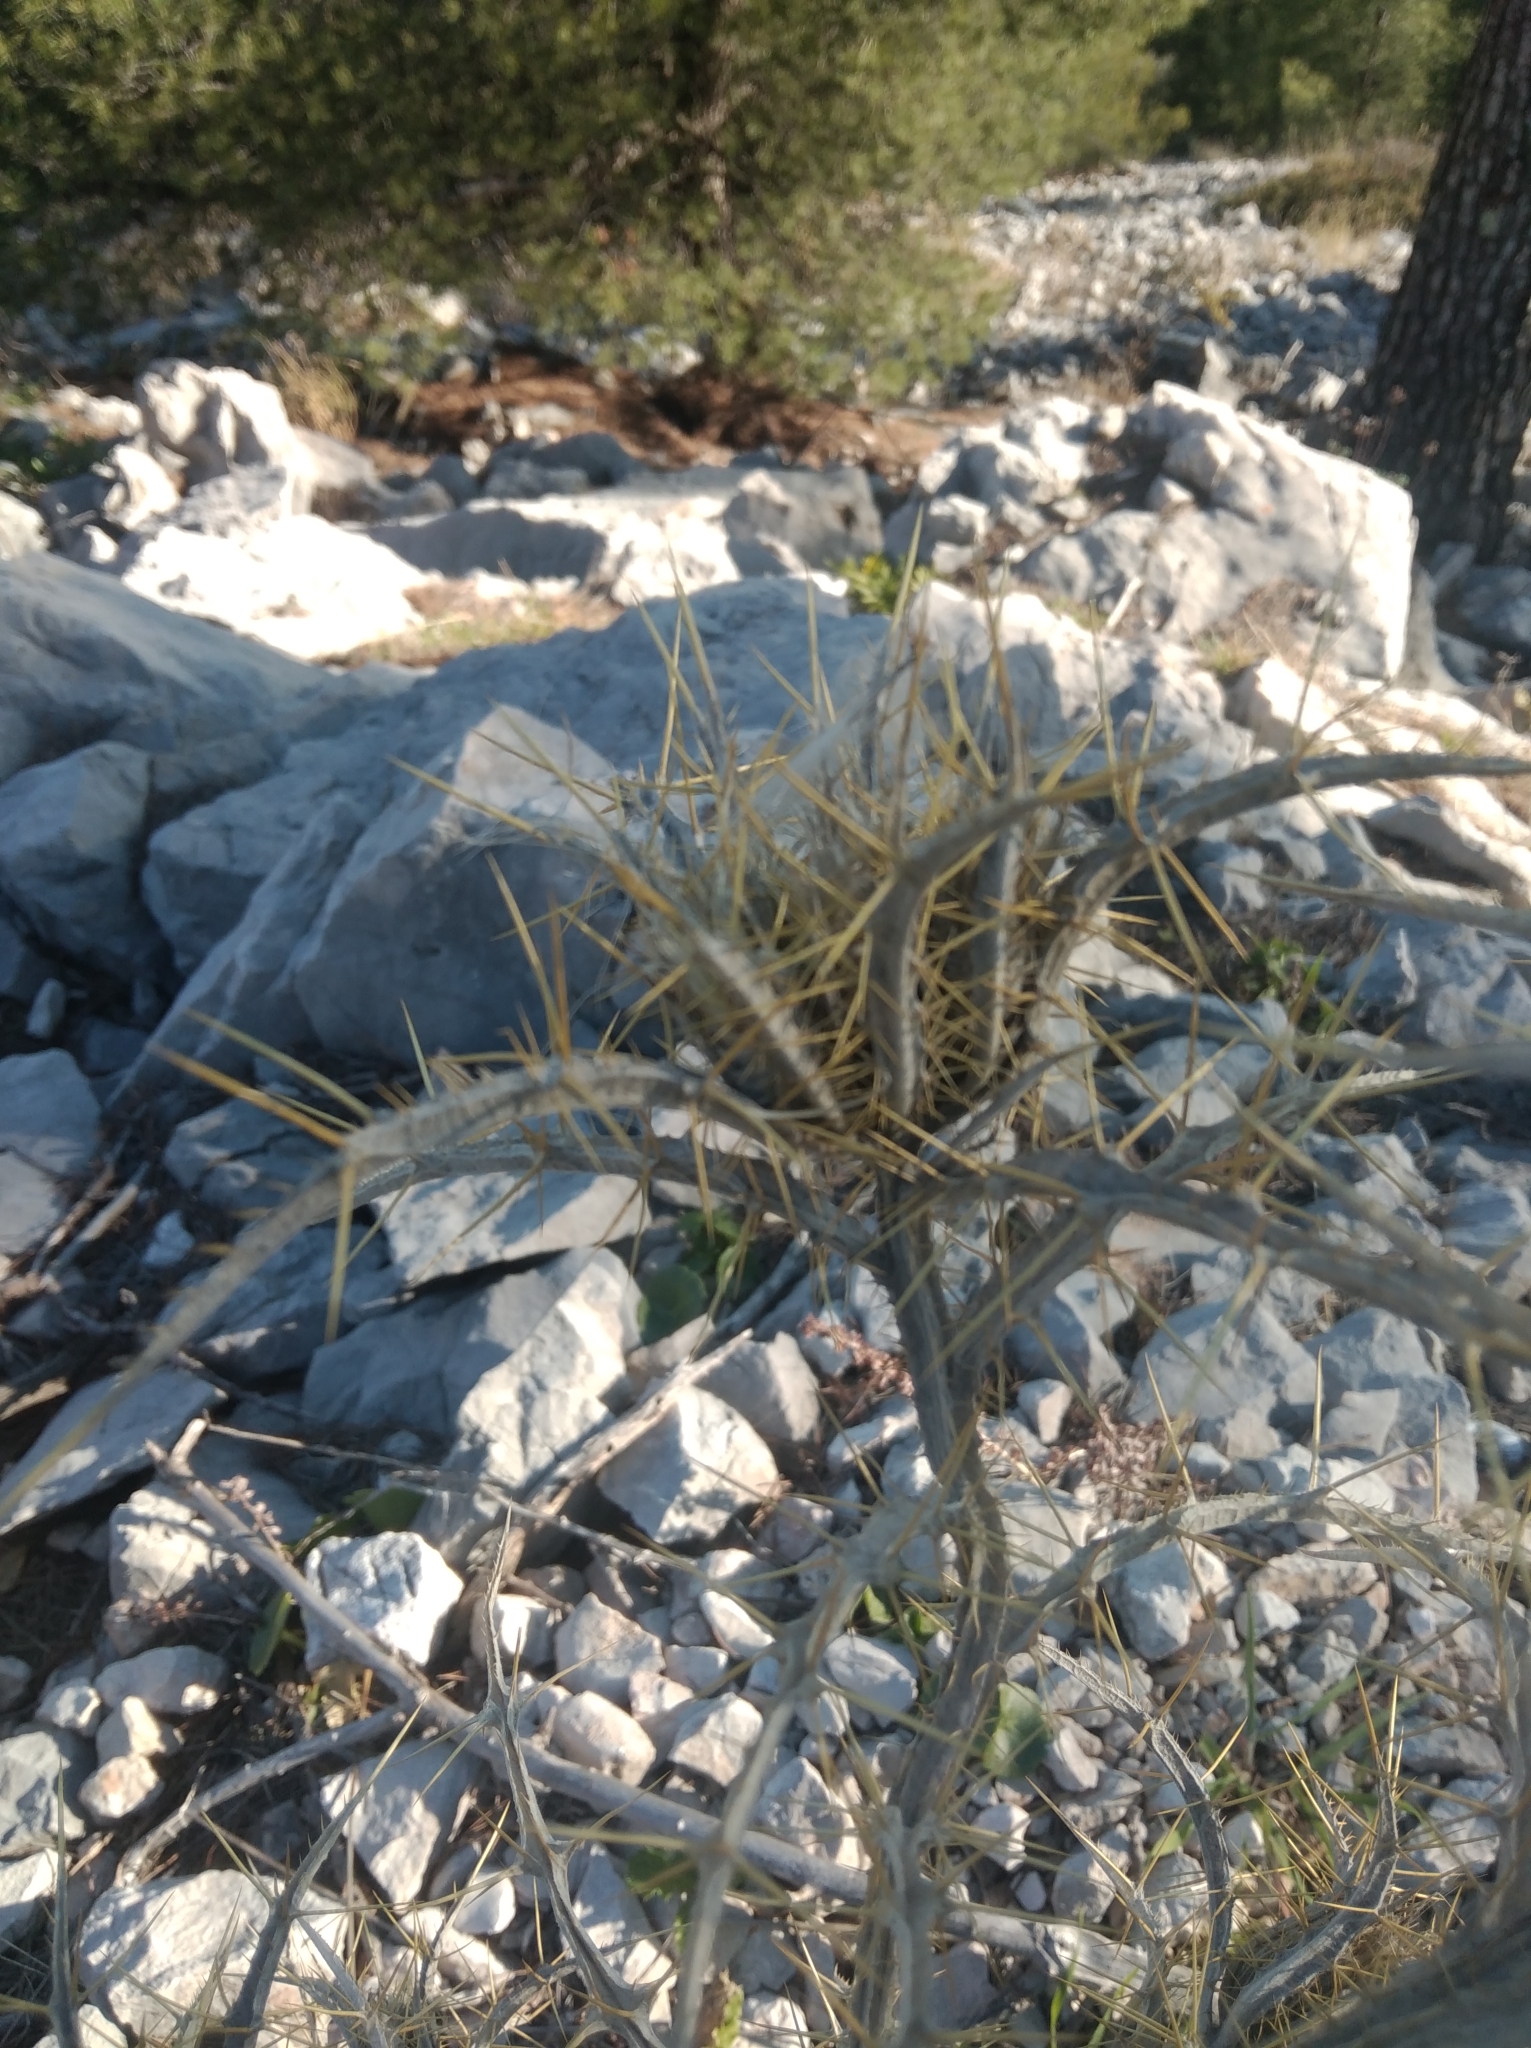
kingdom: Plantae
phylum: Tracheophyta
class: Magnoliopsida
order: Asterales
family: Asteraceae
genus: Picnomon
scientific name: Picnomon acarna
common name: Soldier thistle
